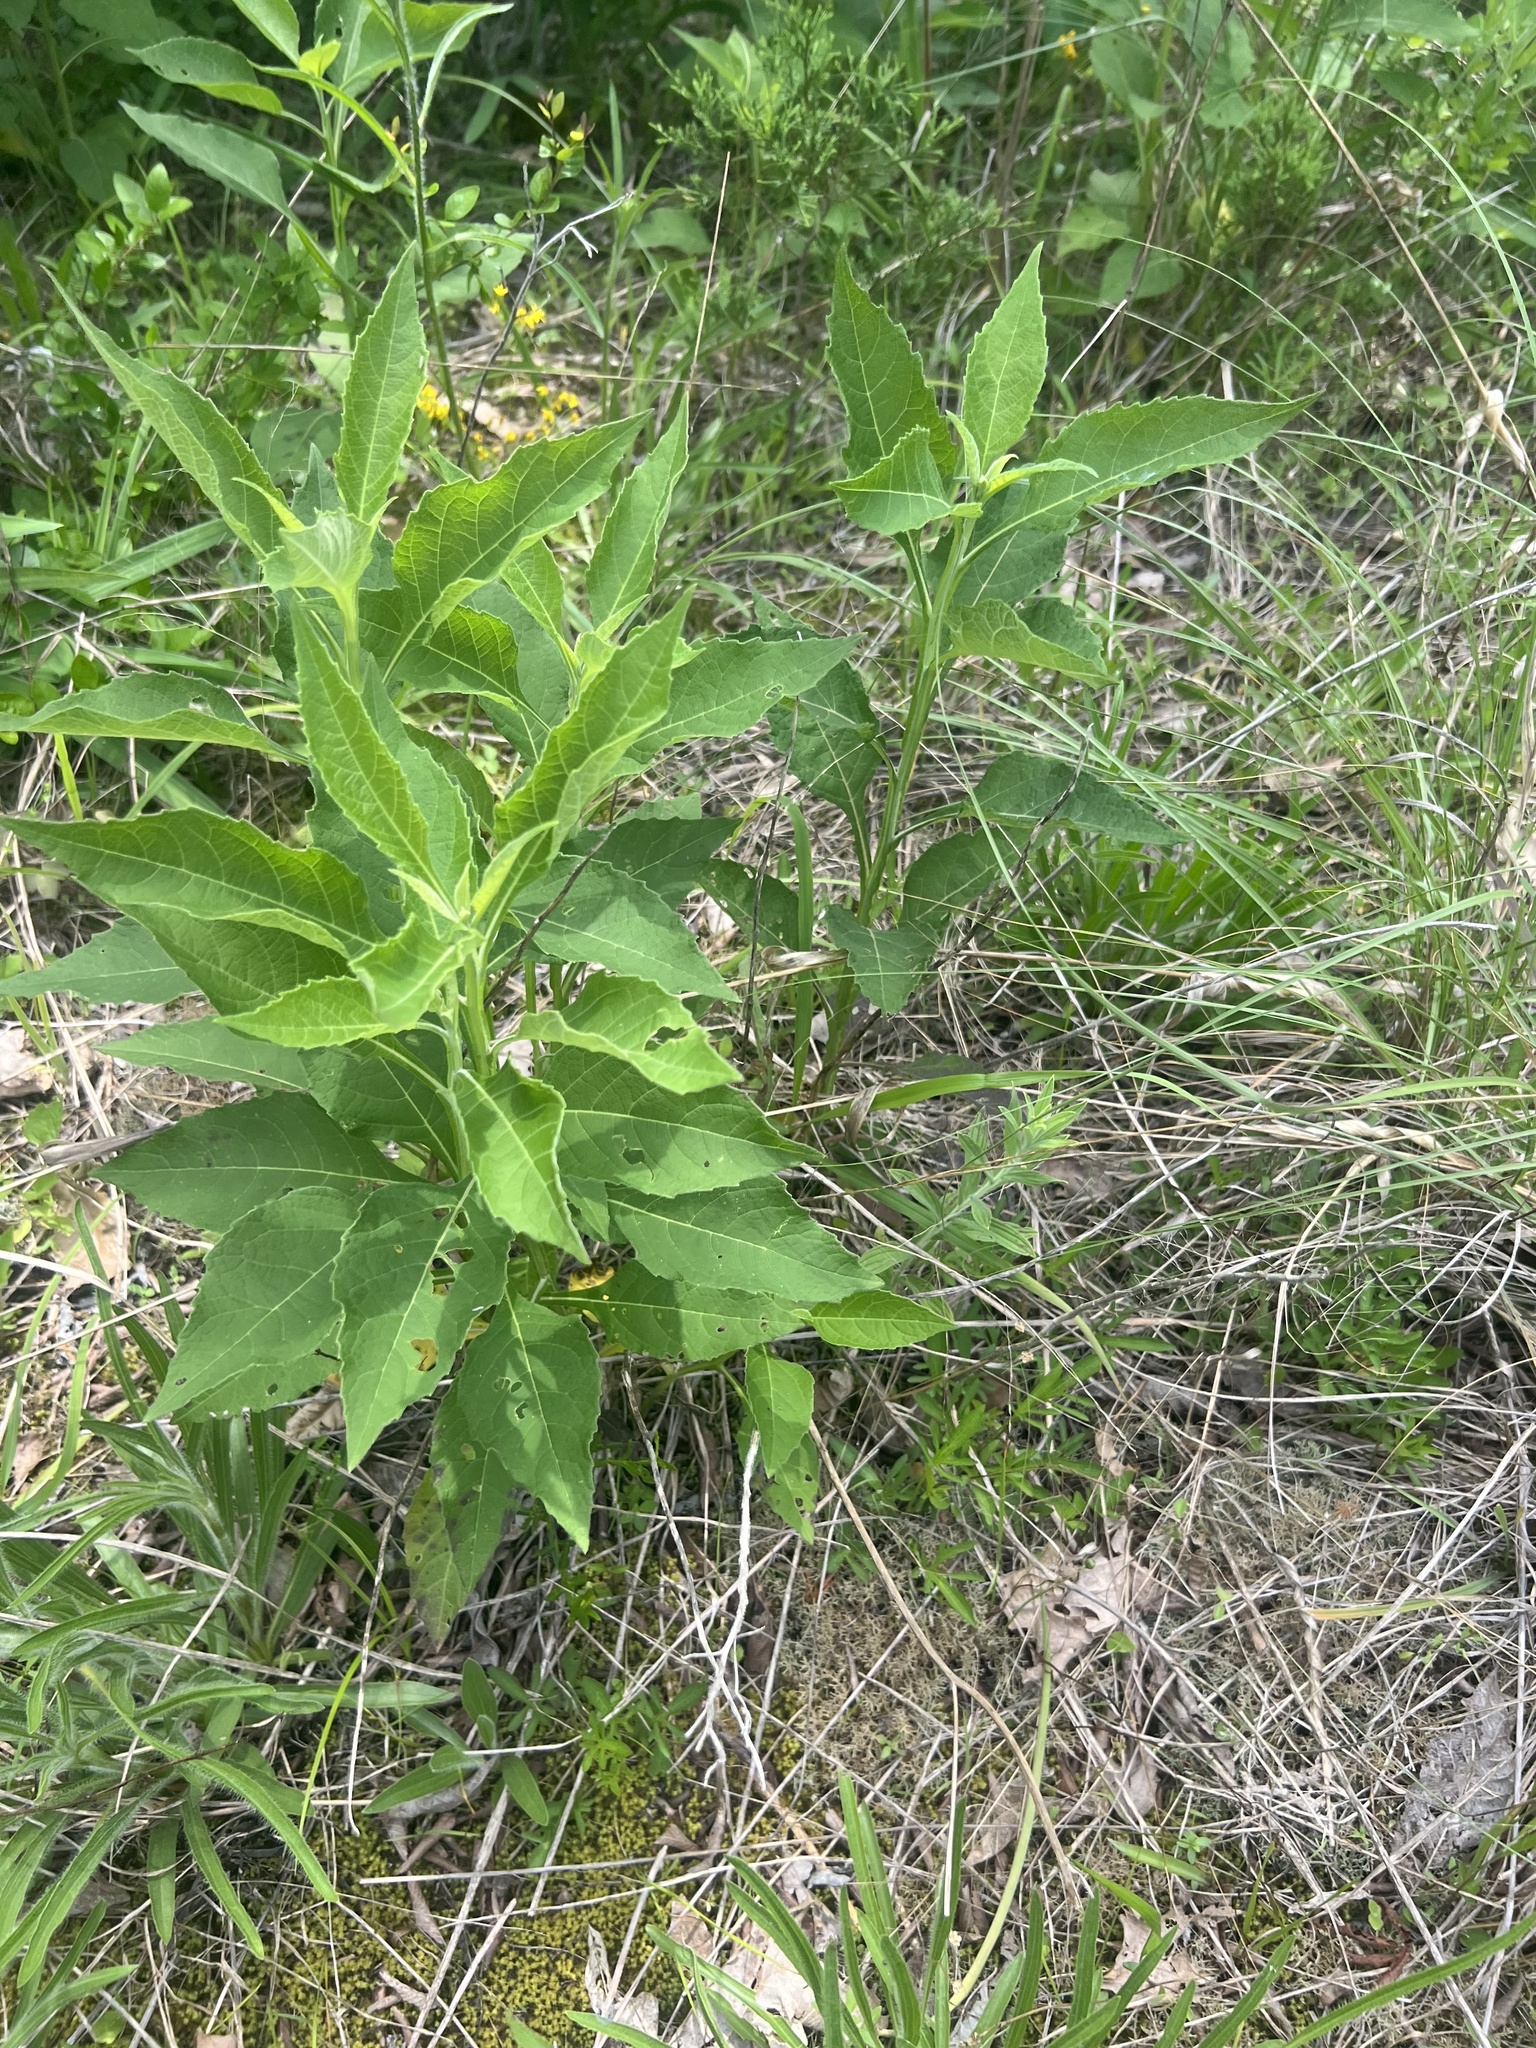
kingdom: Plantae
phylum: Tracheophyta
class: Magnoliopsida
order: Asterales
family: Asteraceae
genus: Verbesina
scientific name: Verbesina virginica
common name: Frostweed
